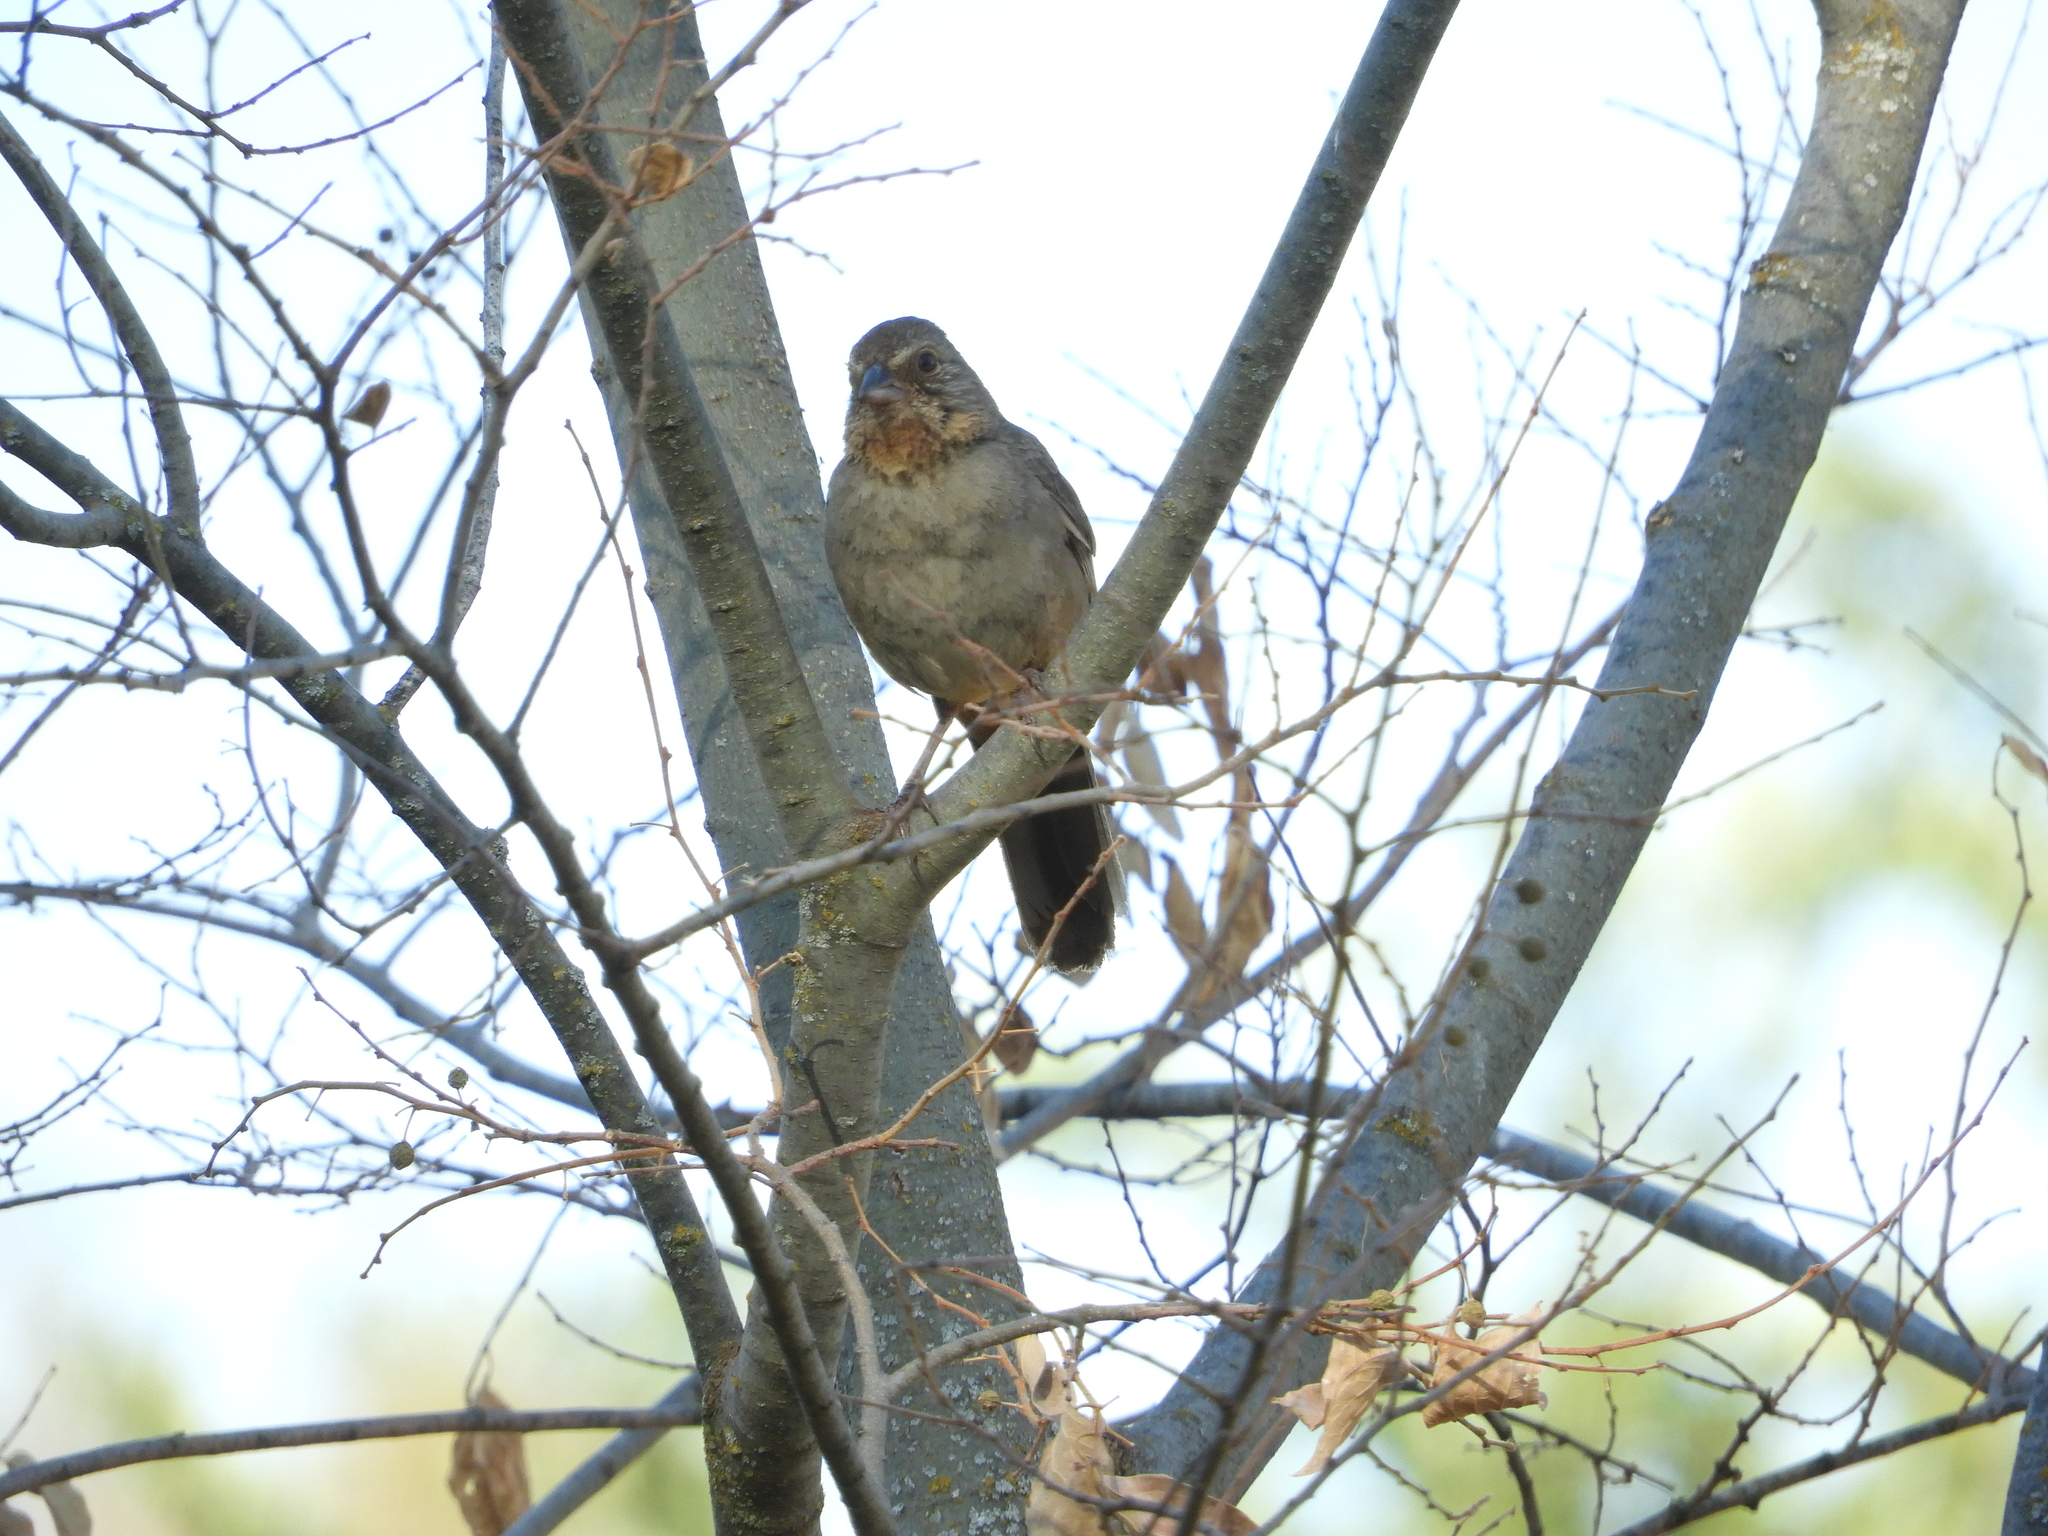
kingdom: Animalia
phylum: Chordata
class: Aves
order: Passeriformes
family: Passerellidae
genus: Melozone
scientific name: Melozone crissalis
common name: California towhee
